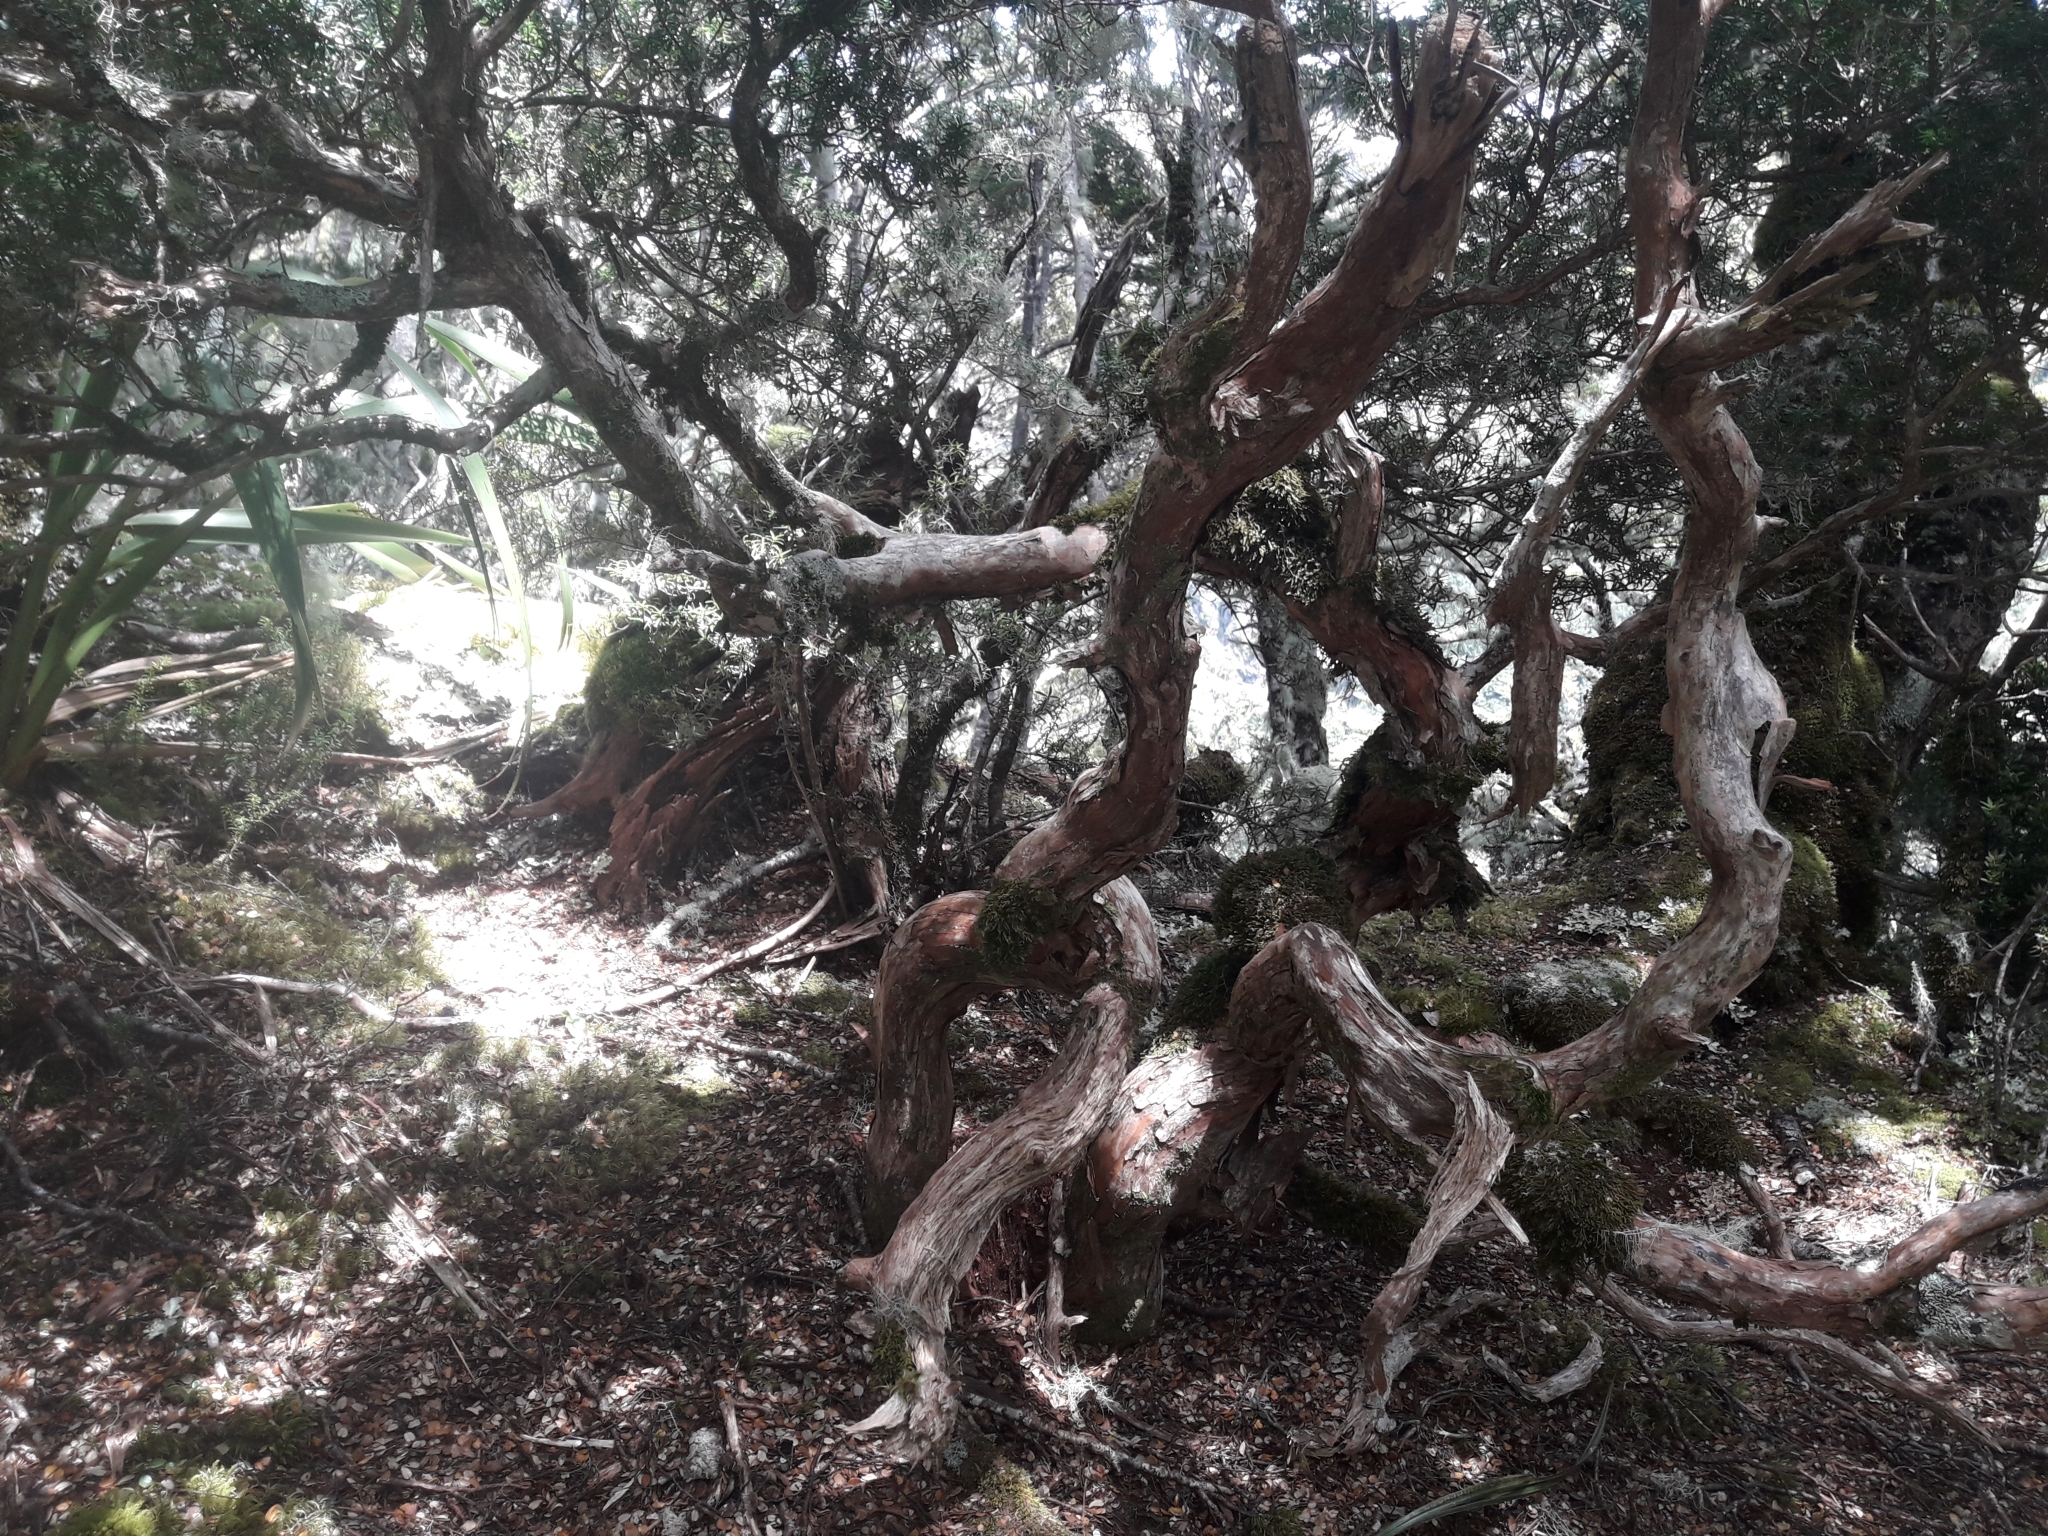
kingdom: Plantae
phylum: Tracheophyta
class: Magnoliopsida
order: Ericales
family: Ericaceae
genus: Archeria
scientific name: Archeria traversii
